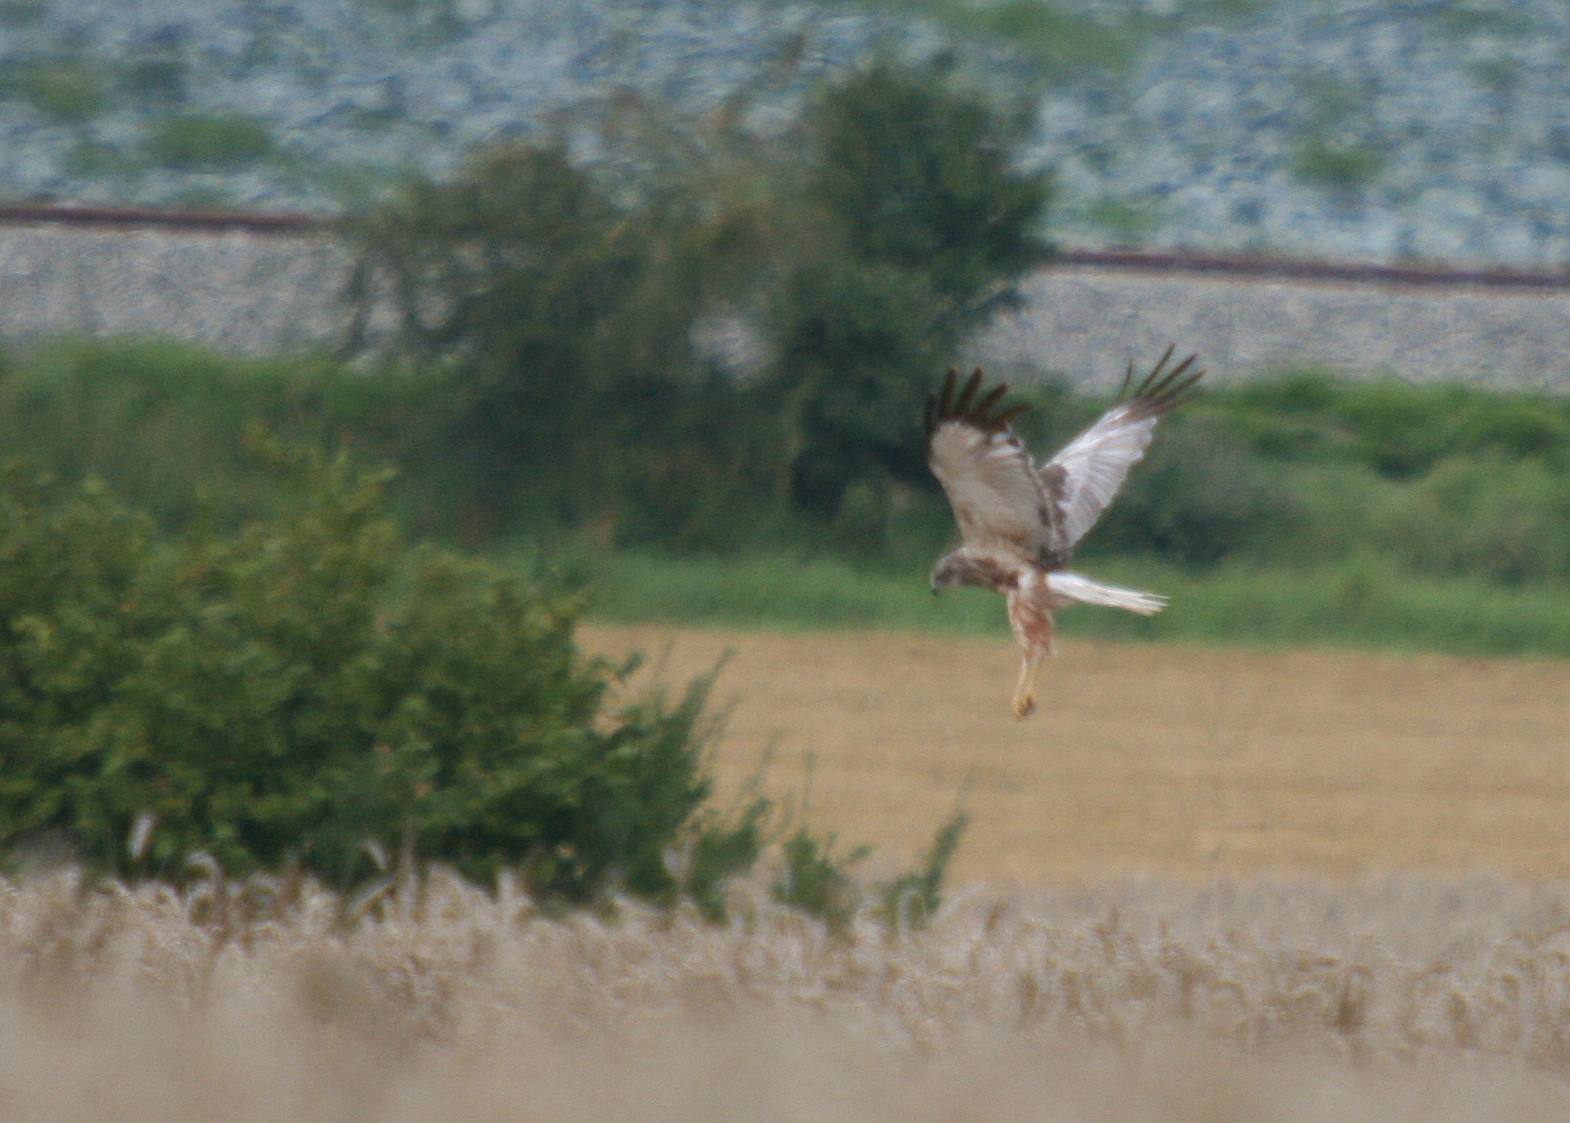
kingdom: Animalia
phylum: Chordata
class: Aves
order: Accipitriformes
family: Accipitridae
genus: Circus
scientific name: Circus aeruginosus
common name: Western marsh harrier
